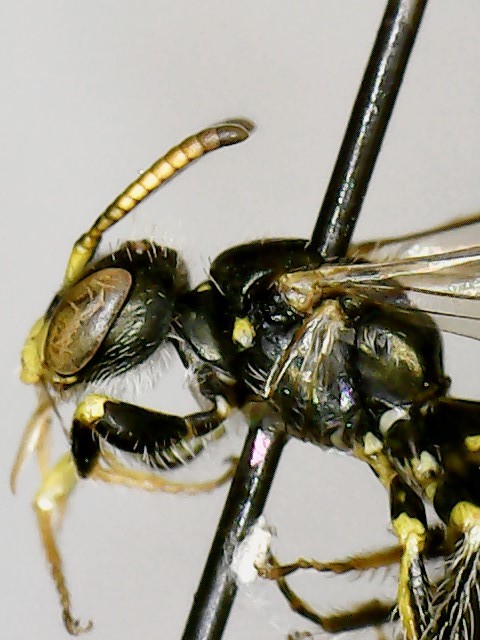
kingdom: Animalia
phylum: Arthropoda
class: Insecta
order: Hymenoptera
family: Andrenidae
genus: Perdita
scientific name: Perdita octomaculata
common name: Eight-spotted miner bee
